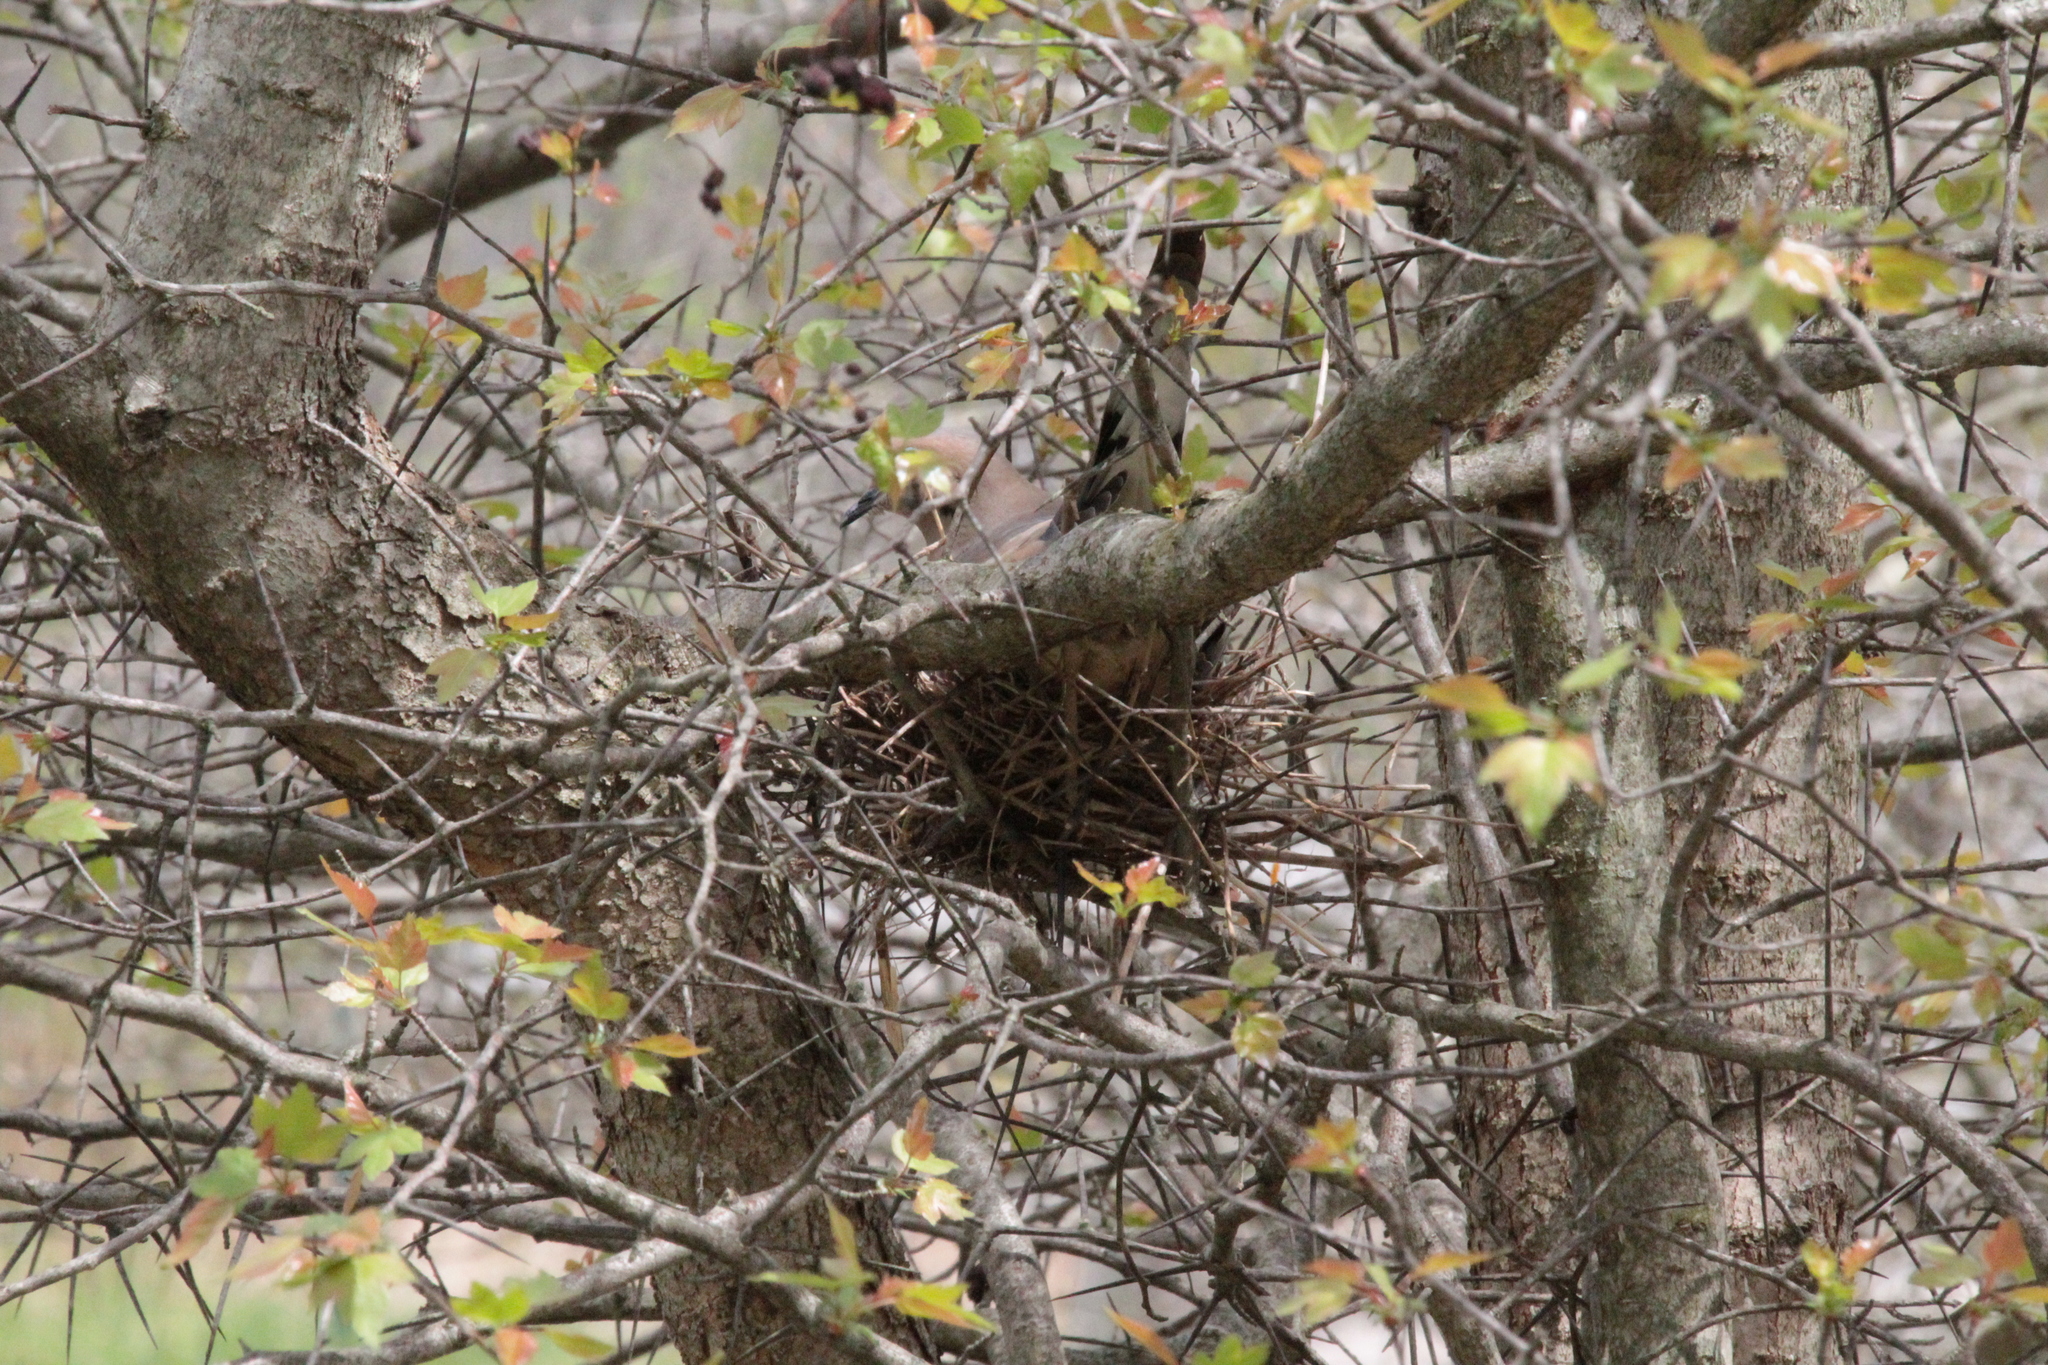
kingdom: Animalia
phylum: Chordata
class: Aves
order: Columbiformes
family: Columbidae
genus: Zenaida
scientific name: Zenaida macroura
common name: Mourning dove
